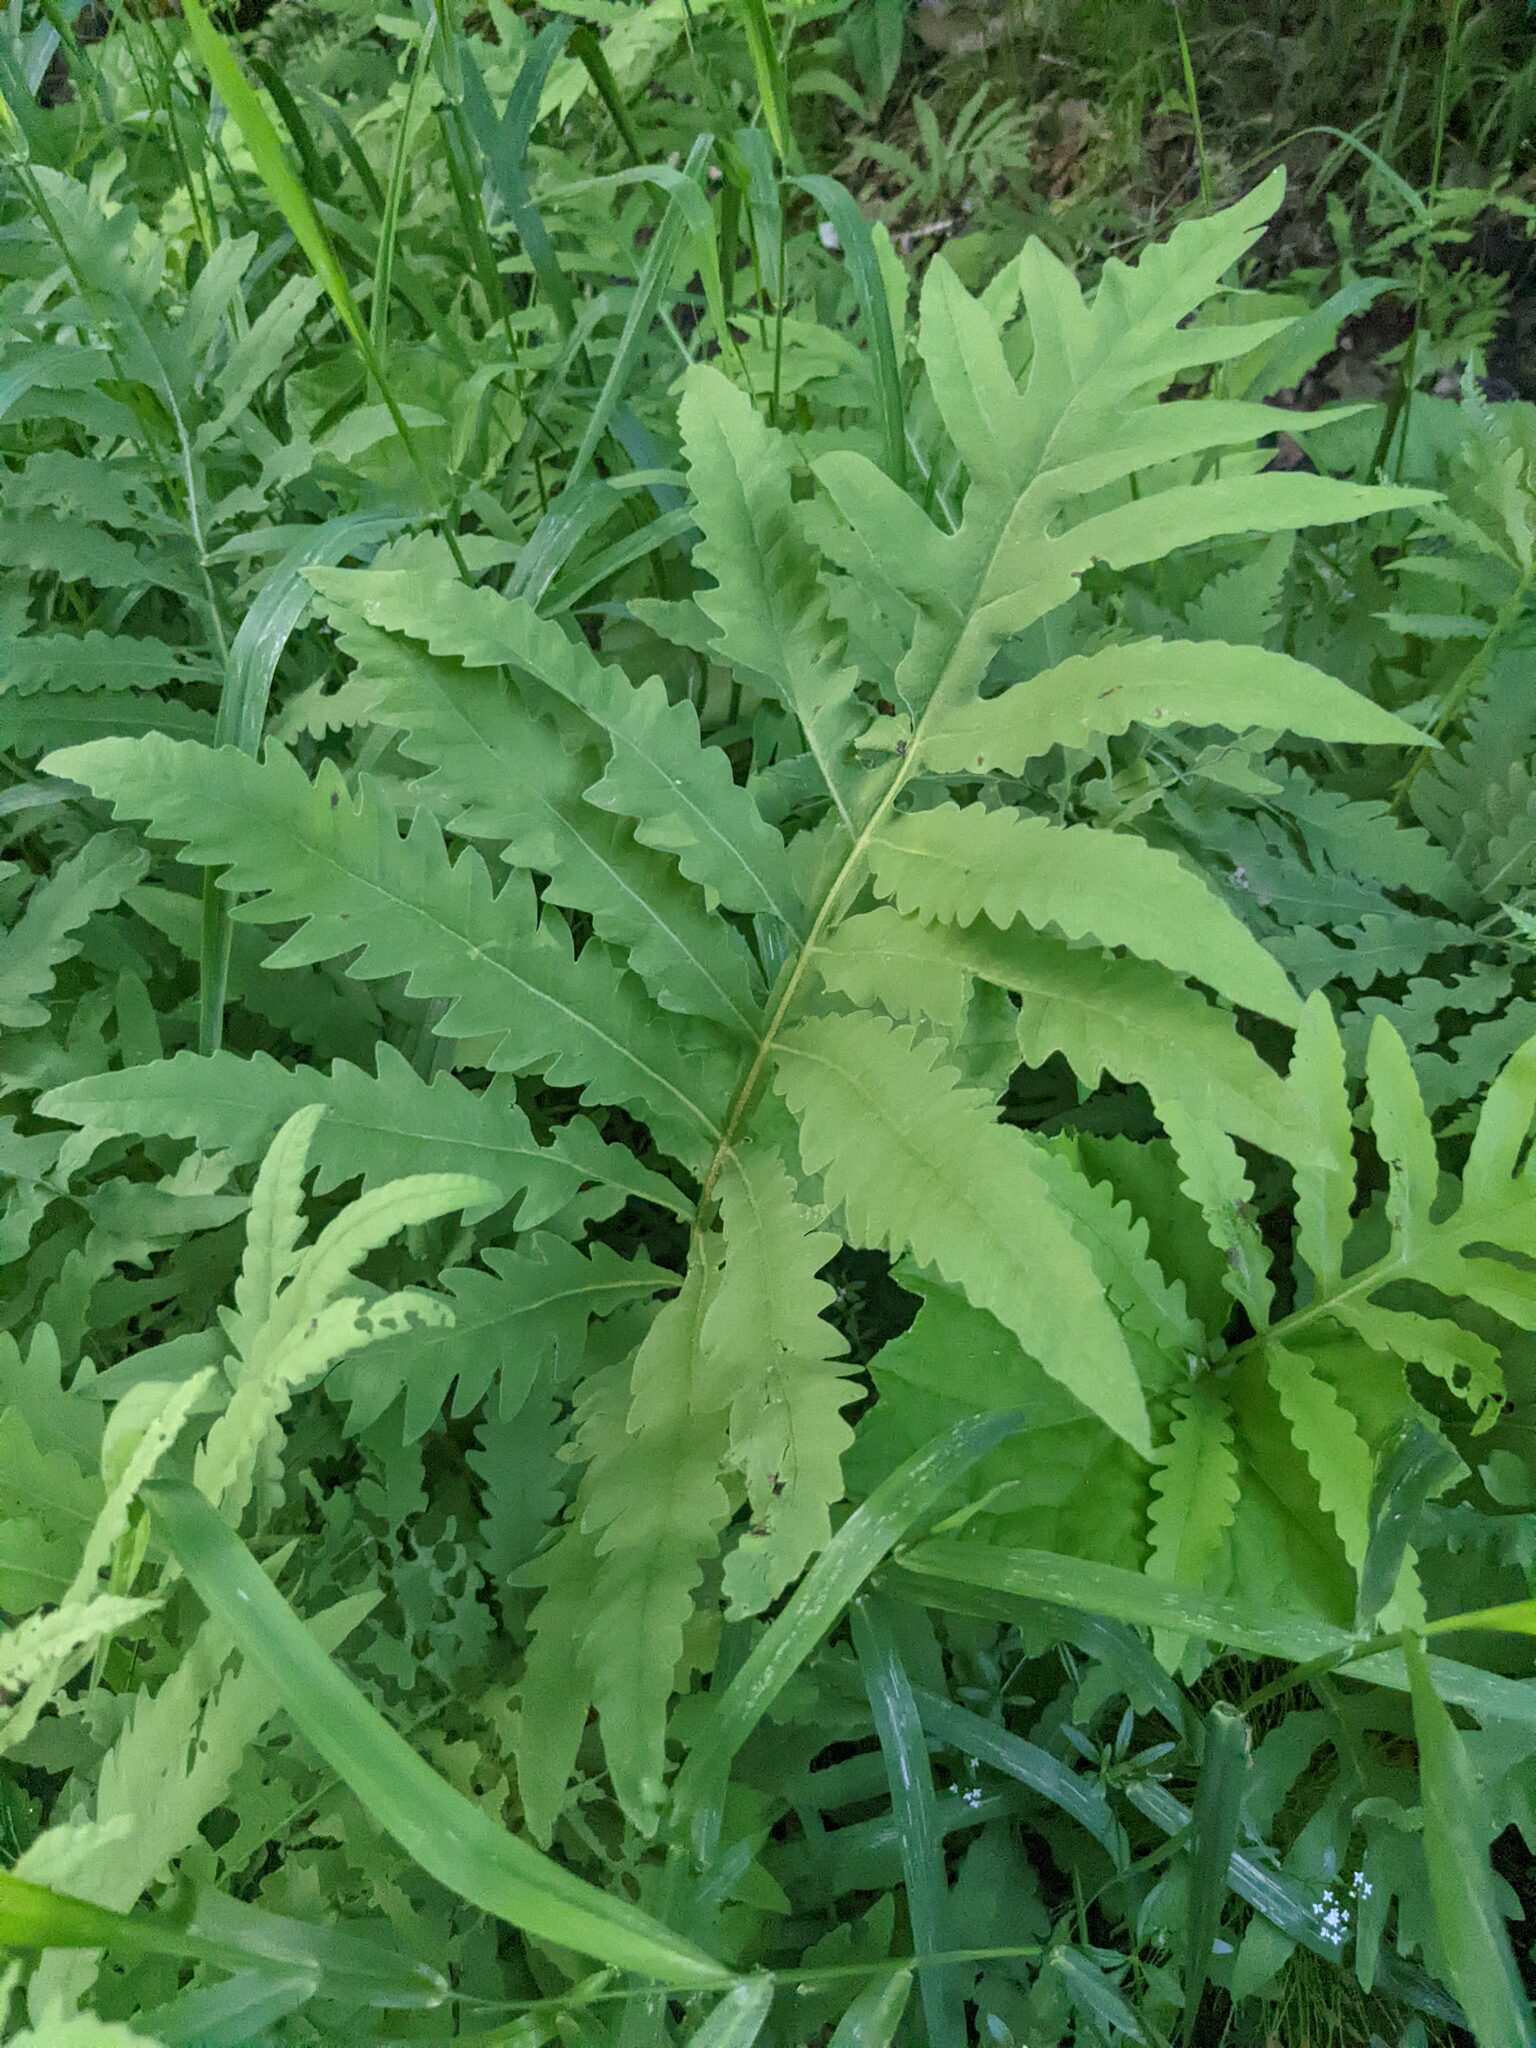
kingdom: Plantae
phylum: Tracheophyta
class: Polypodiopsida
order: Polypodiales
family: Onocleaceae
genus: Onoclea
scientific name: Onoclea sensibilis
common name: Sensitive fern
